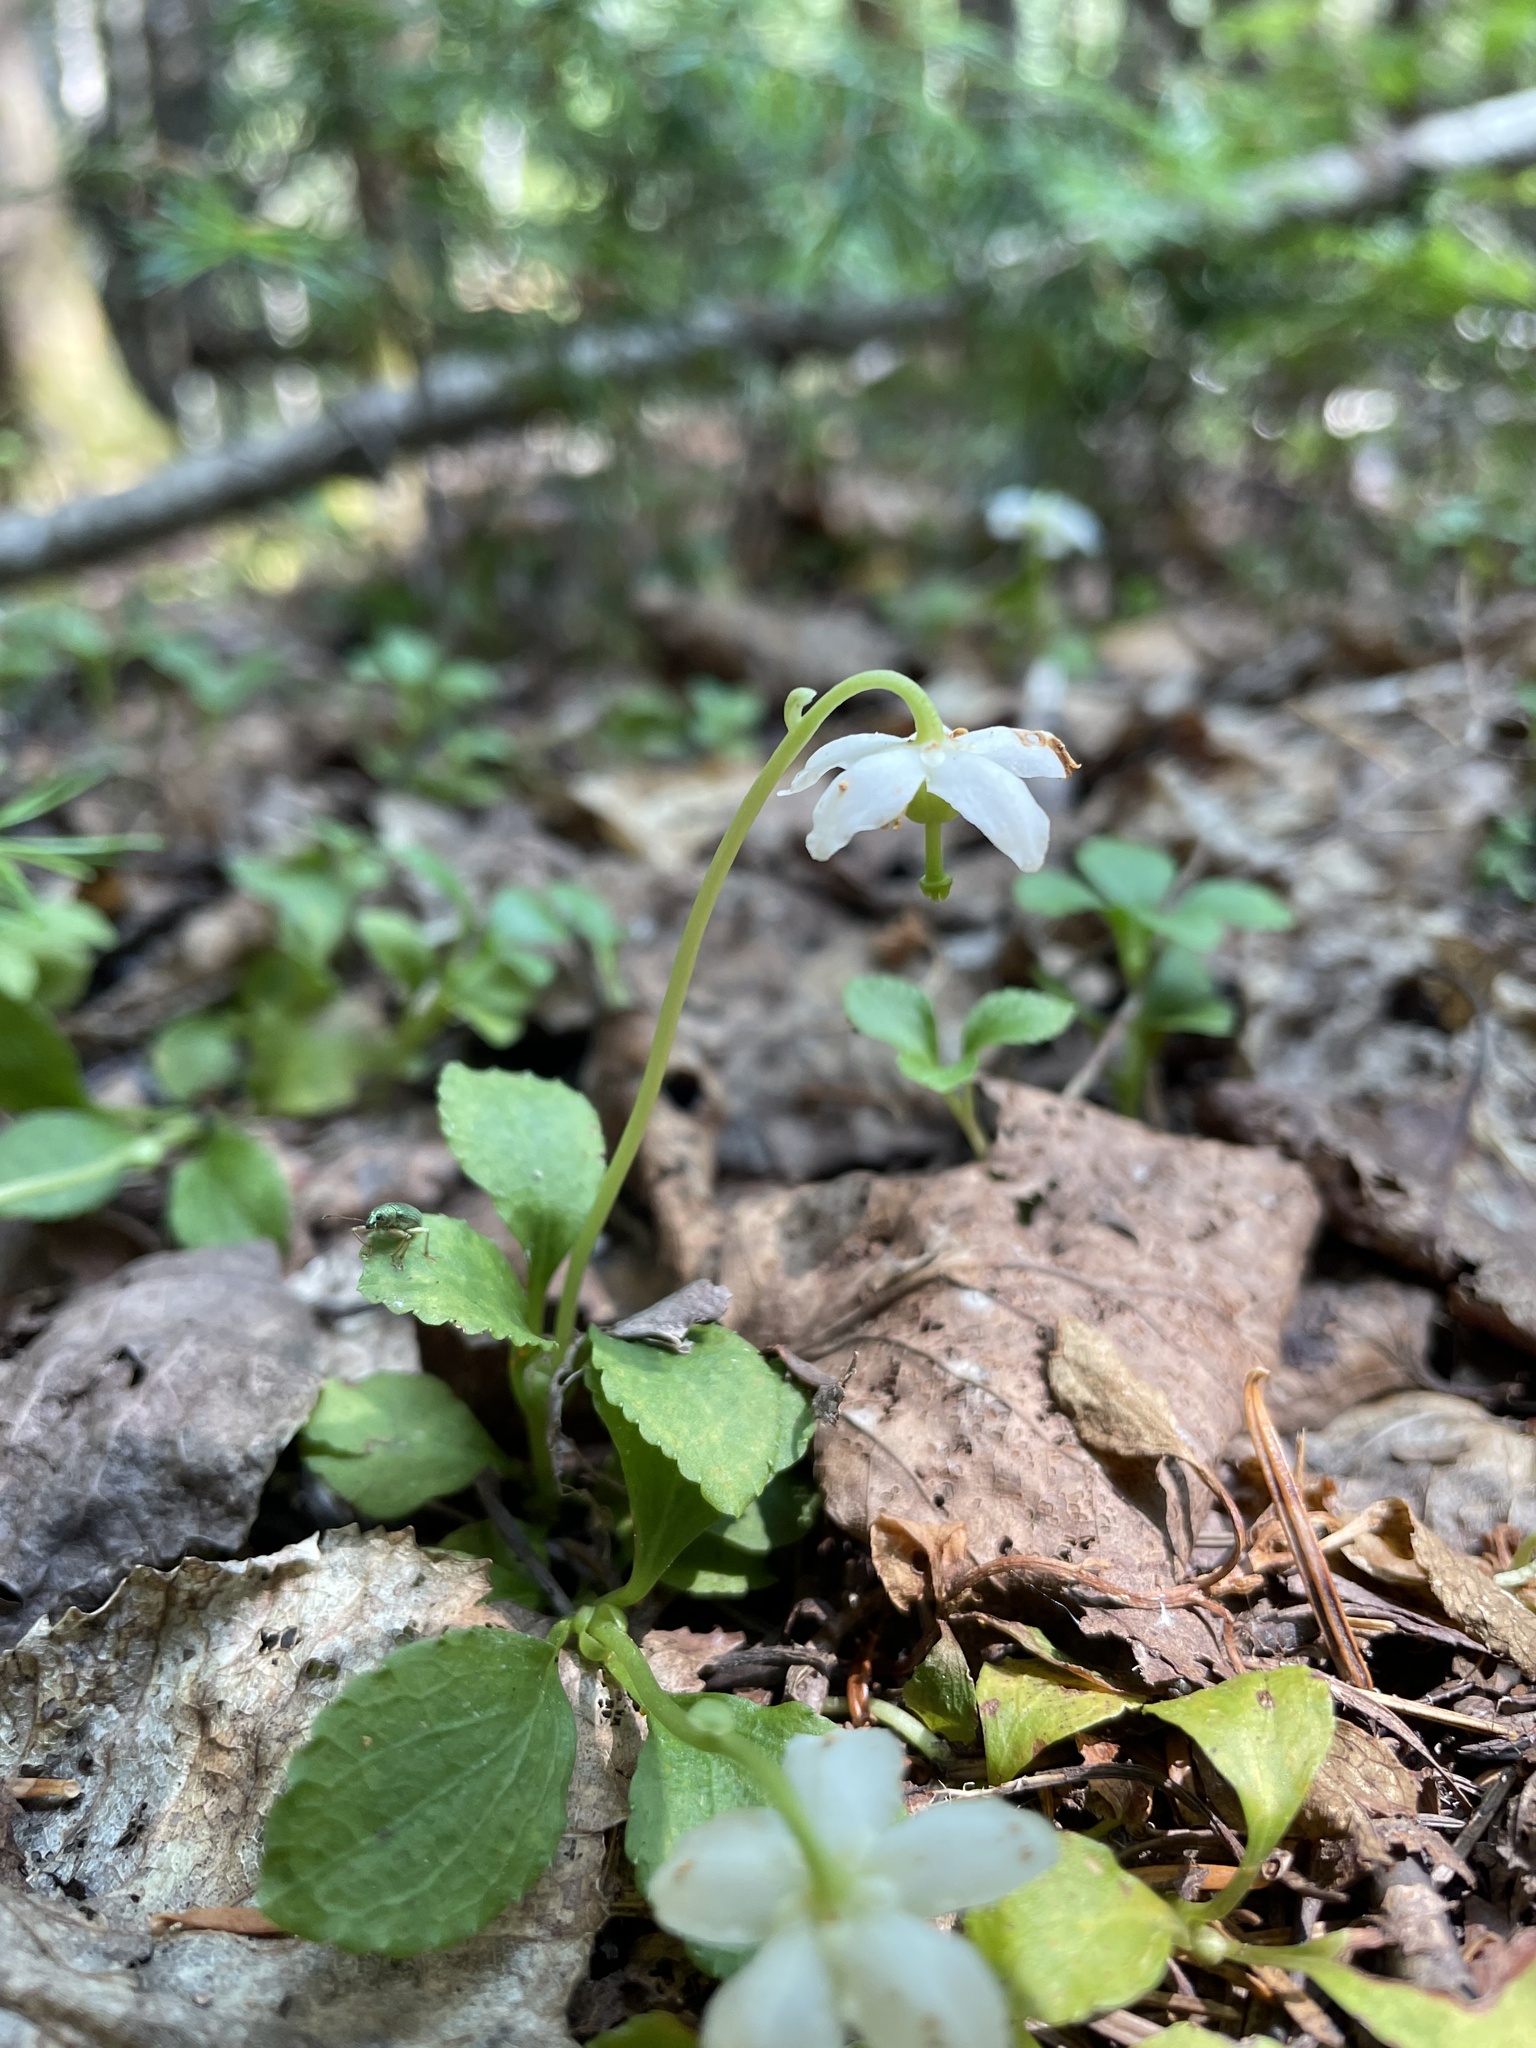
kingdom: Plantae
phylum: Tracheophyta
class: Magnoliopsida
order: Ericales
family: Ericaceae
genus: Moneses
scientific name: Moneses uniflora
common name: One-flowered wintergreen
